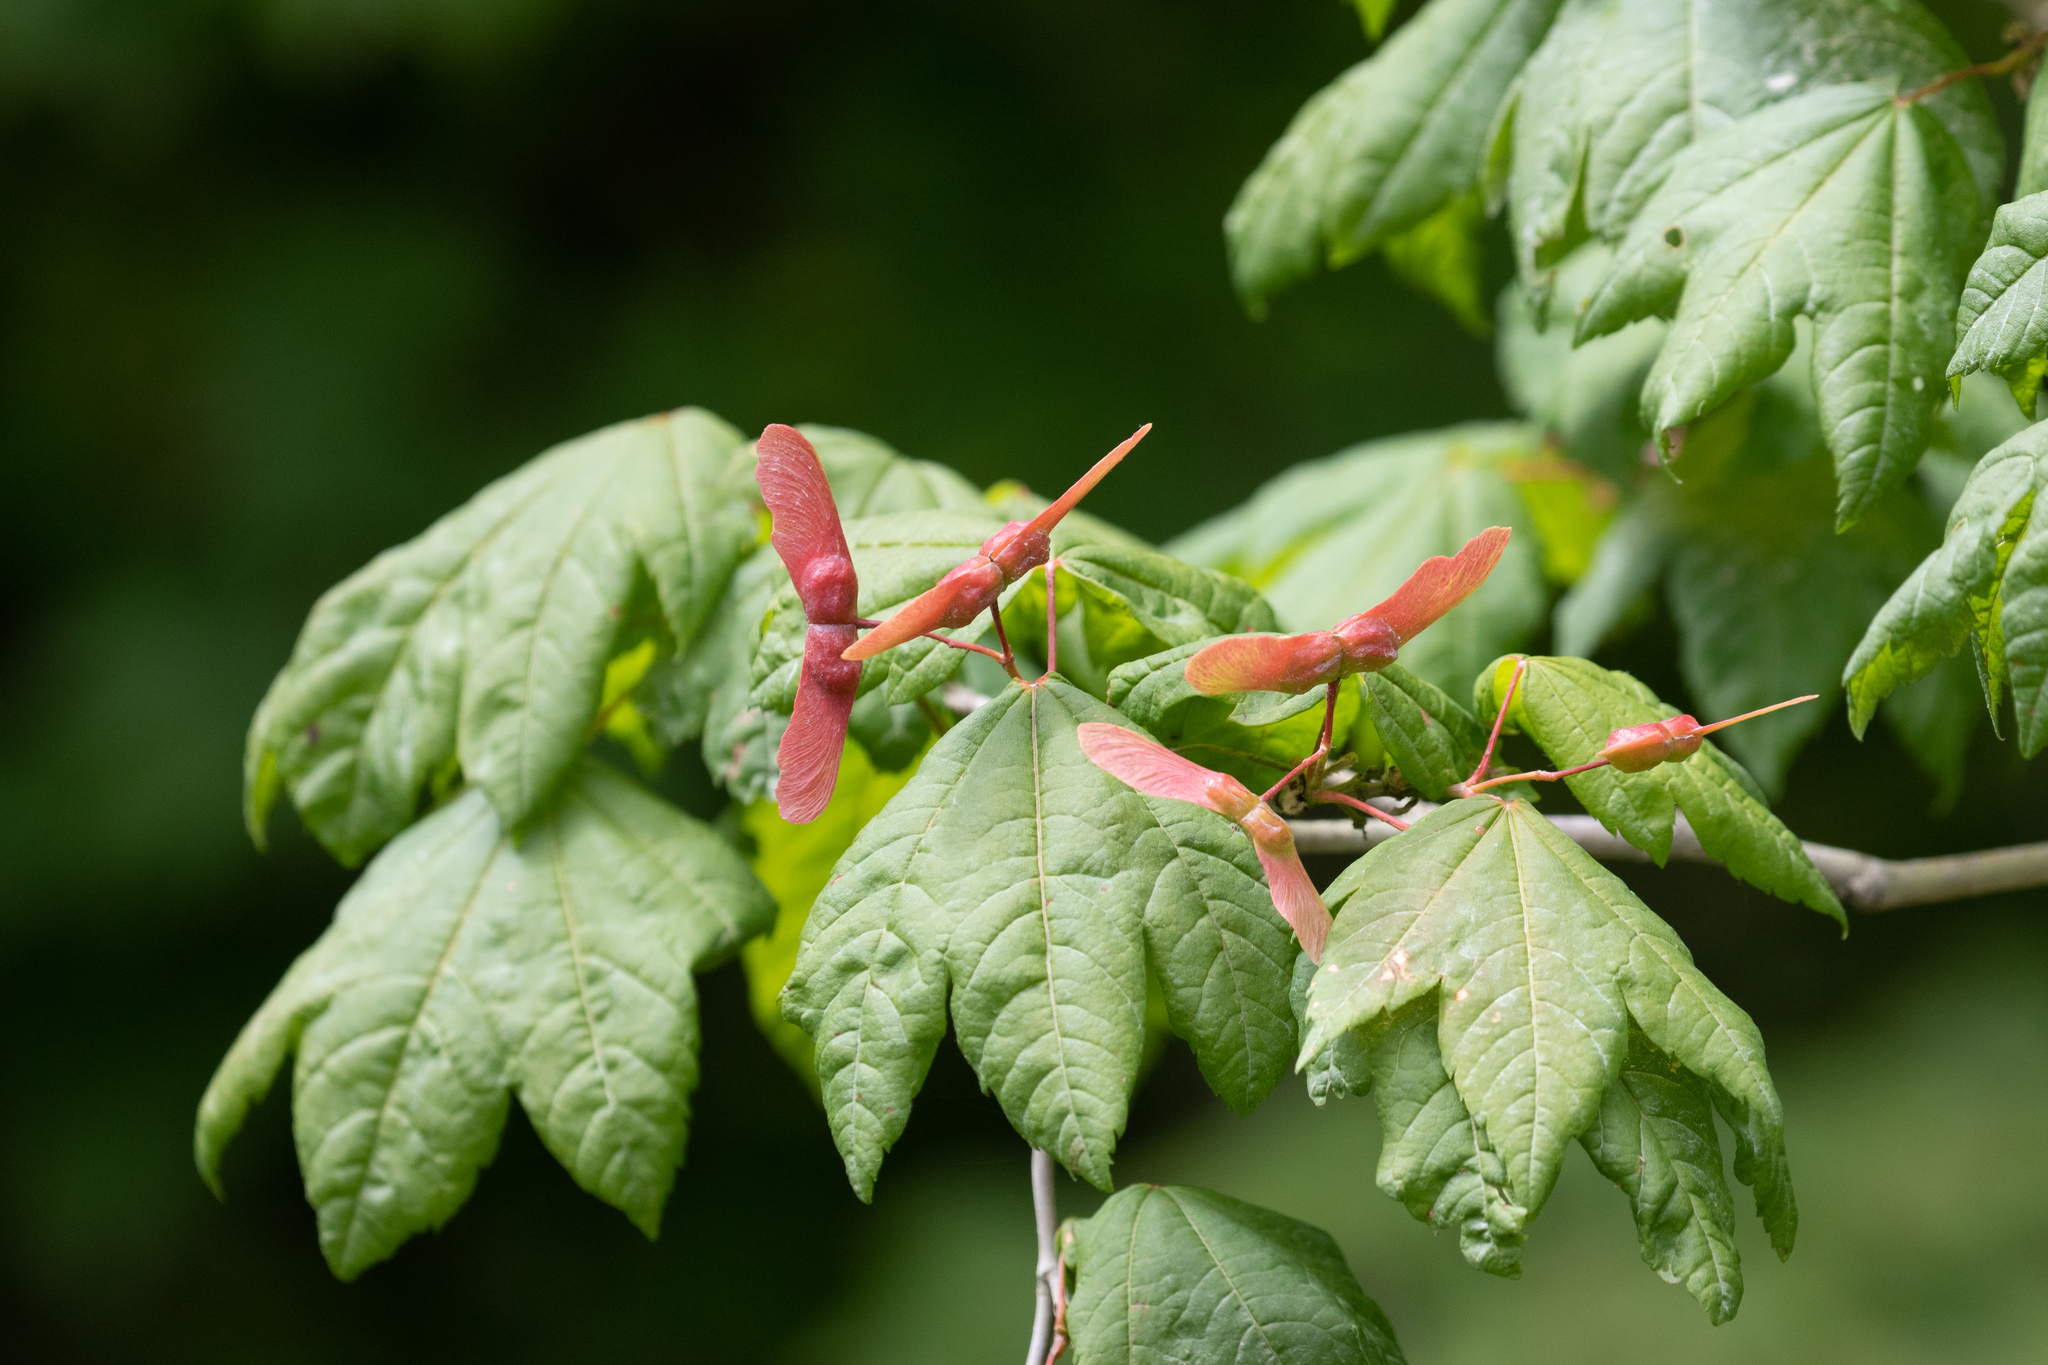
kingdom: Plantae
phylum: Tracheophyta
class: Magnoliopsida
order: Sapindales
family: Sapindaceae
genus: Acer
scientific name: Acer circinatum
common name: Vine maple
